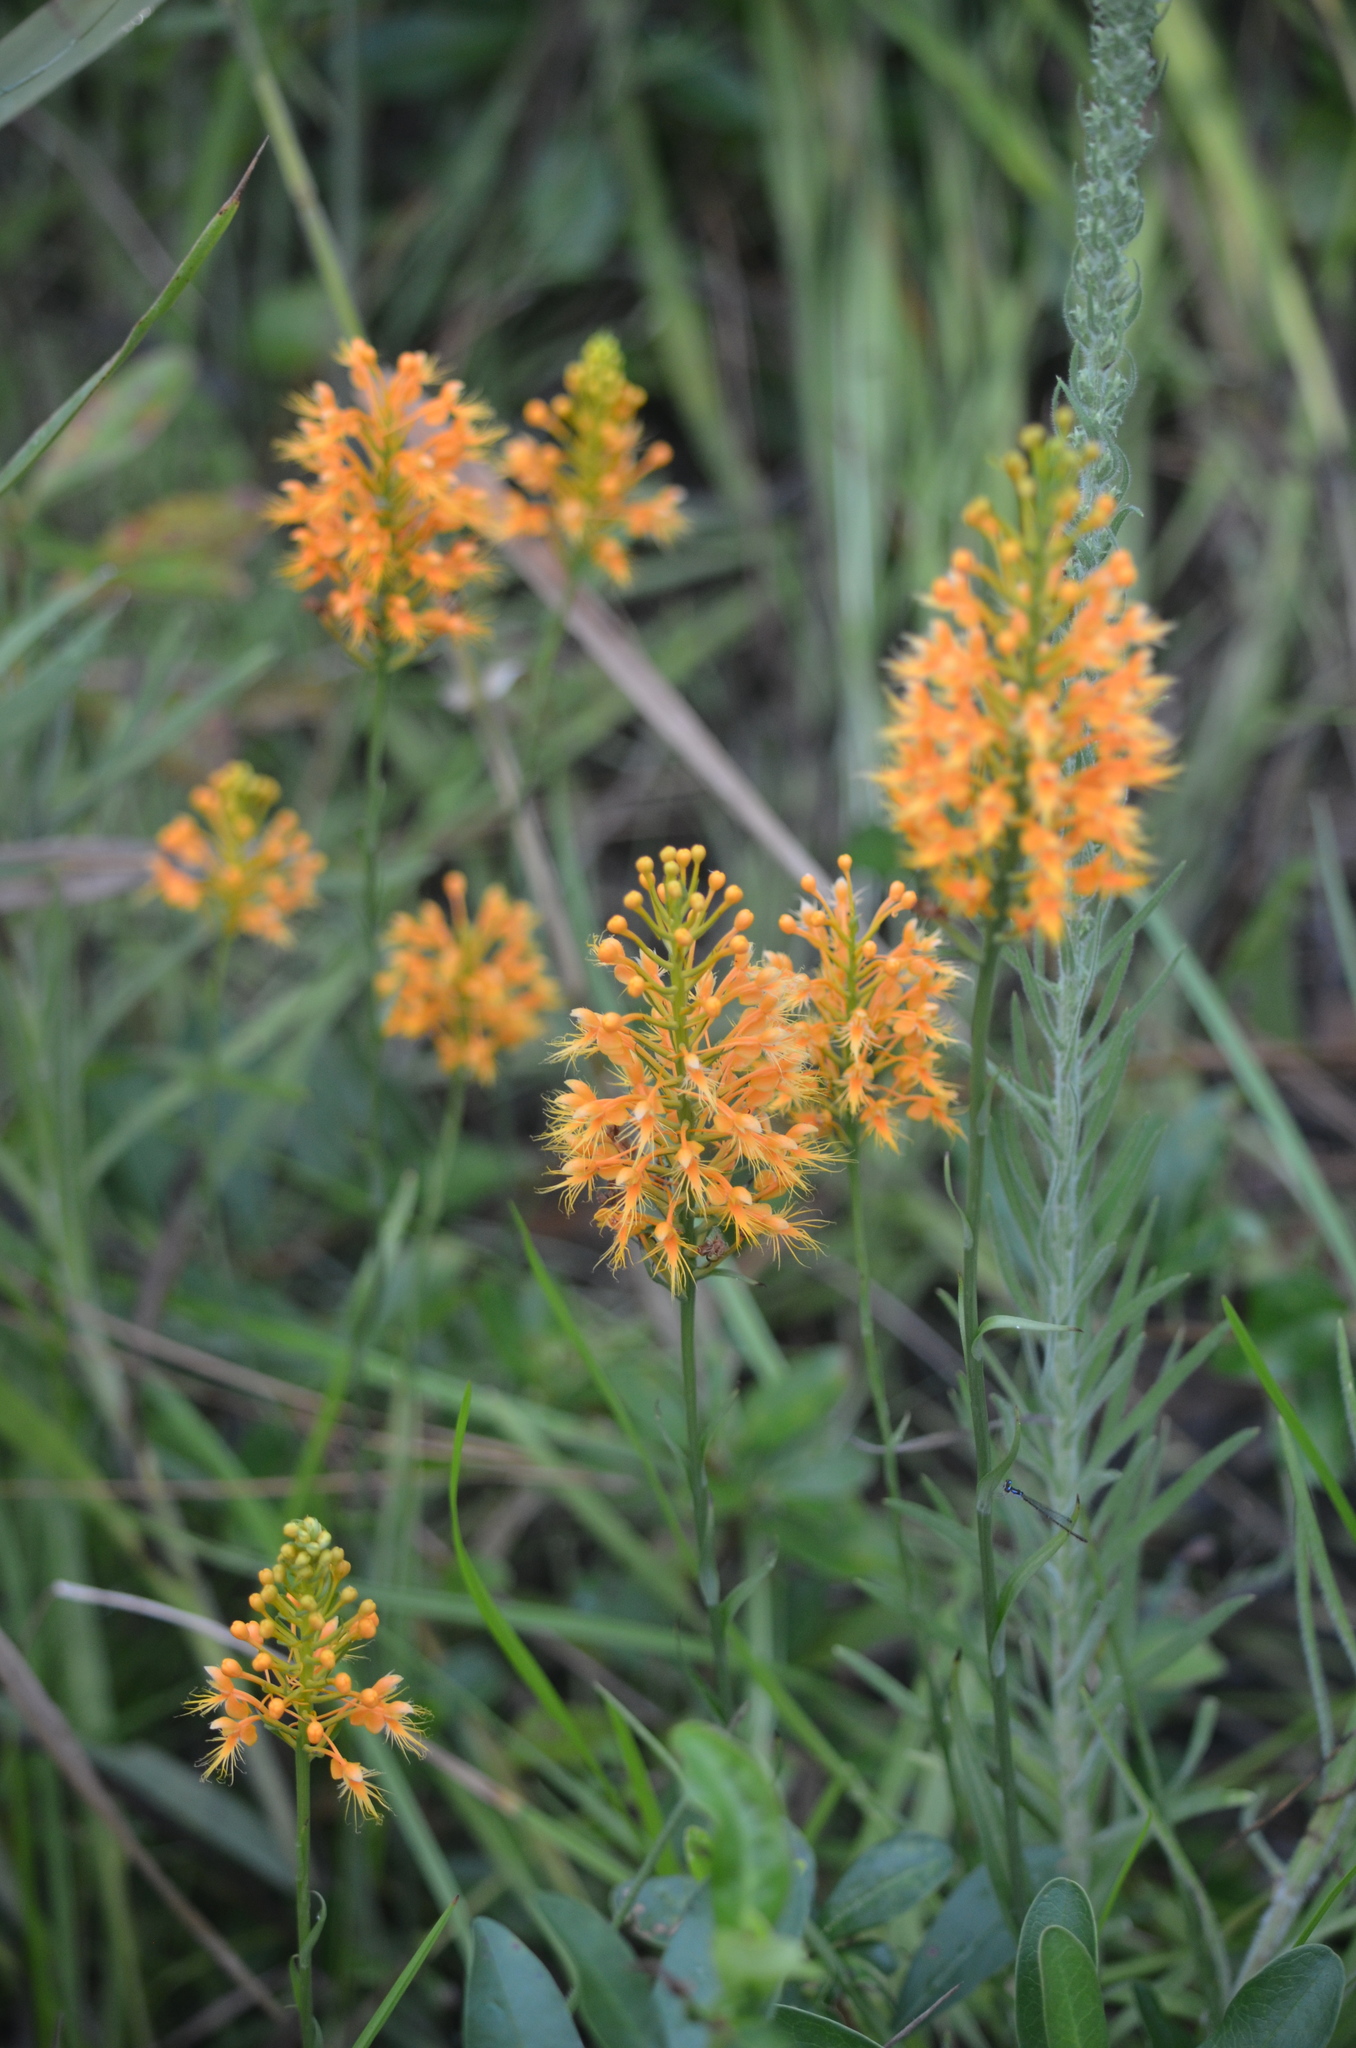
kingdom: Plantae
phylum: Tracheophyta
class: Liliopsida
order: Asparagales
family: Orchidaceae
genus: Platanthera
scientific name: Platanthera chapmanii
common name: Chapman’s fringed orchid
